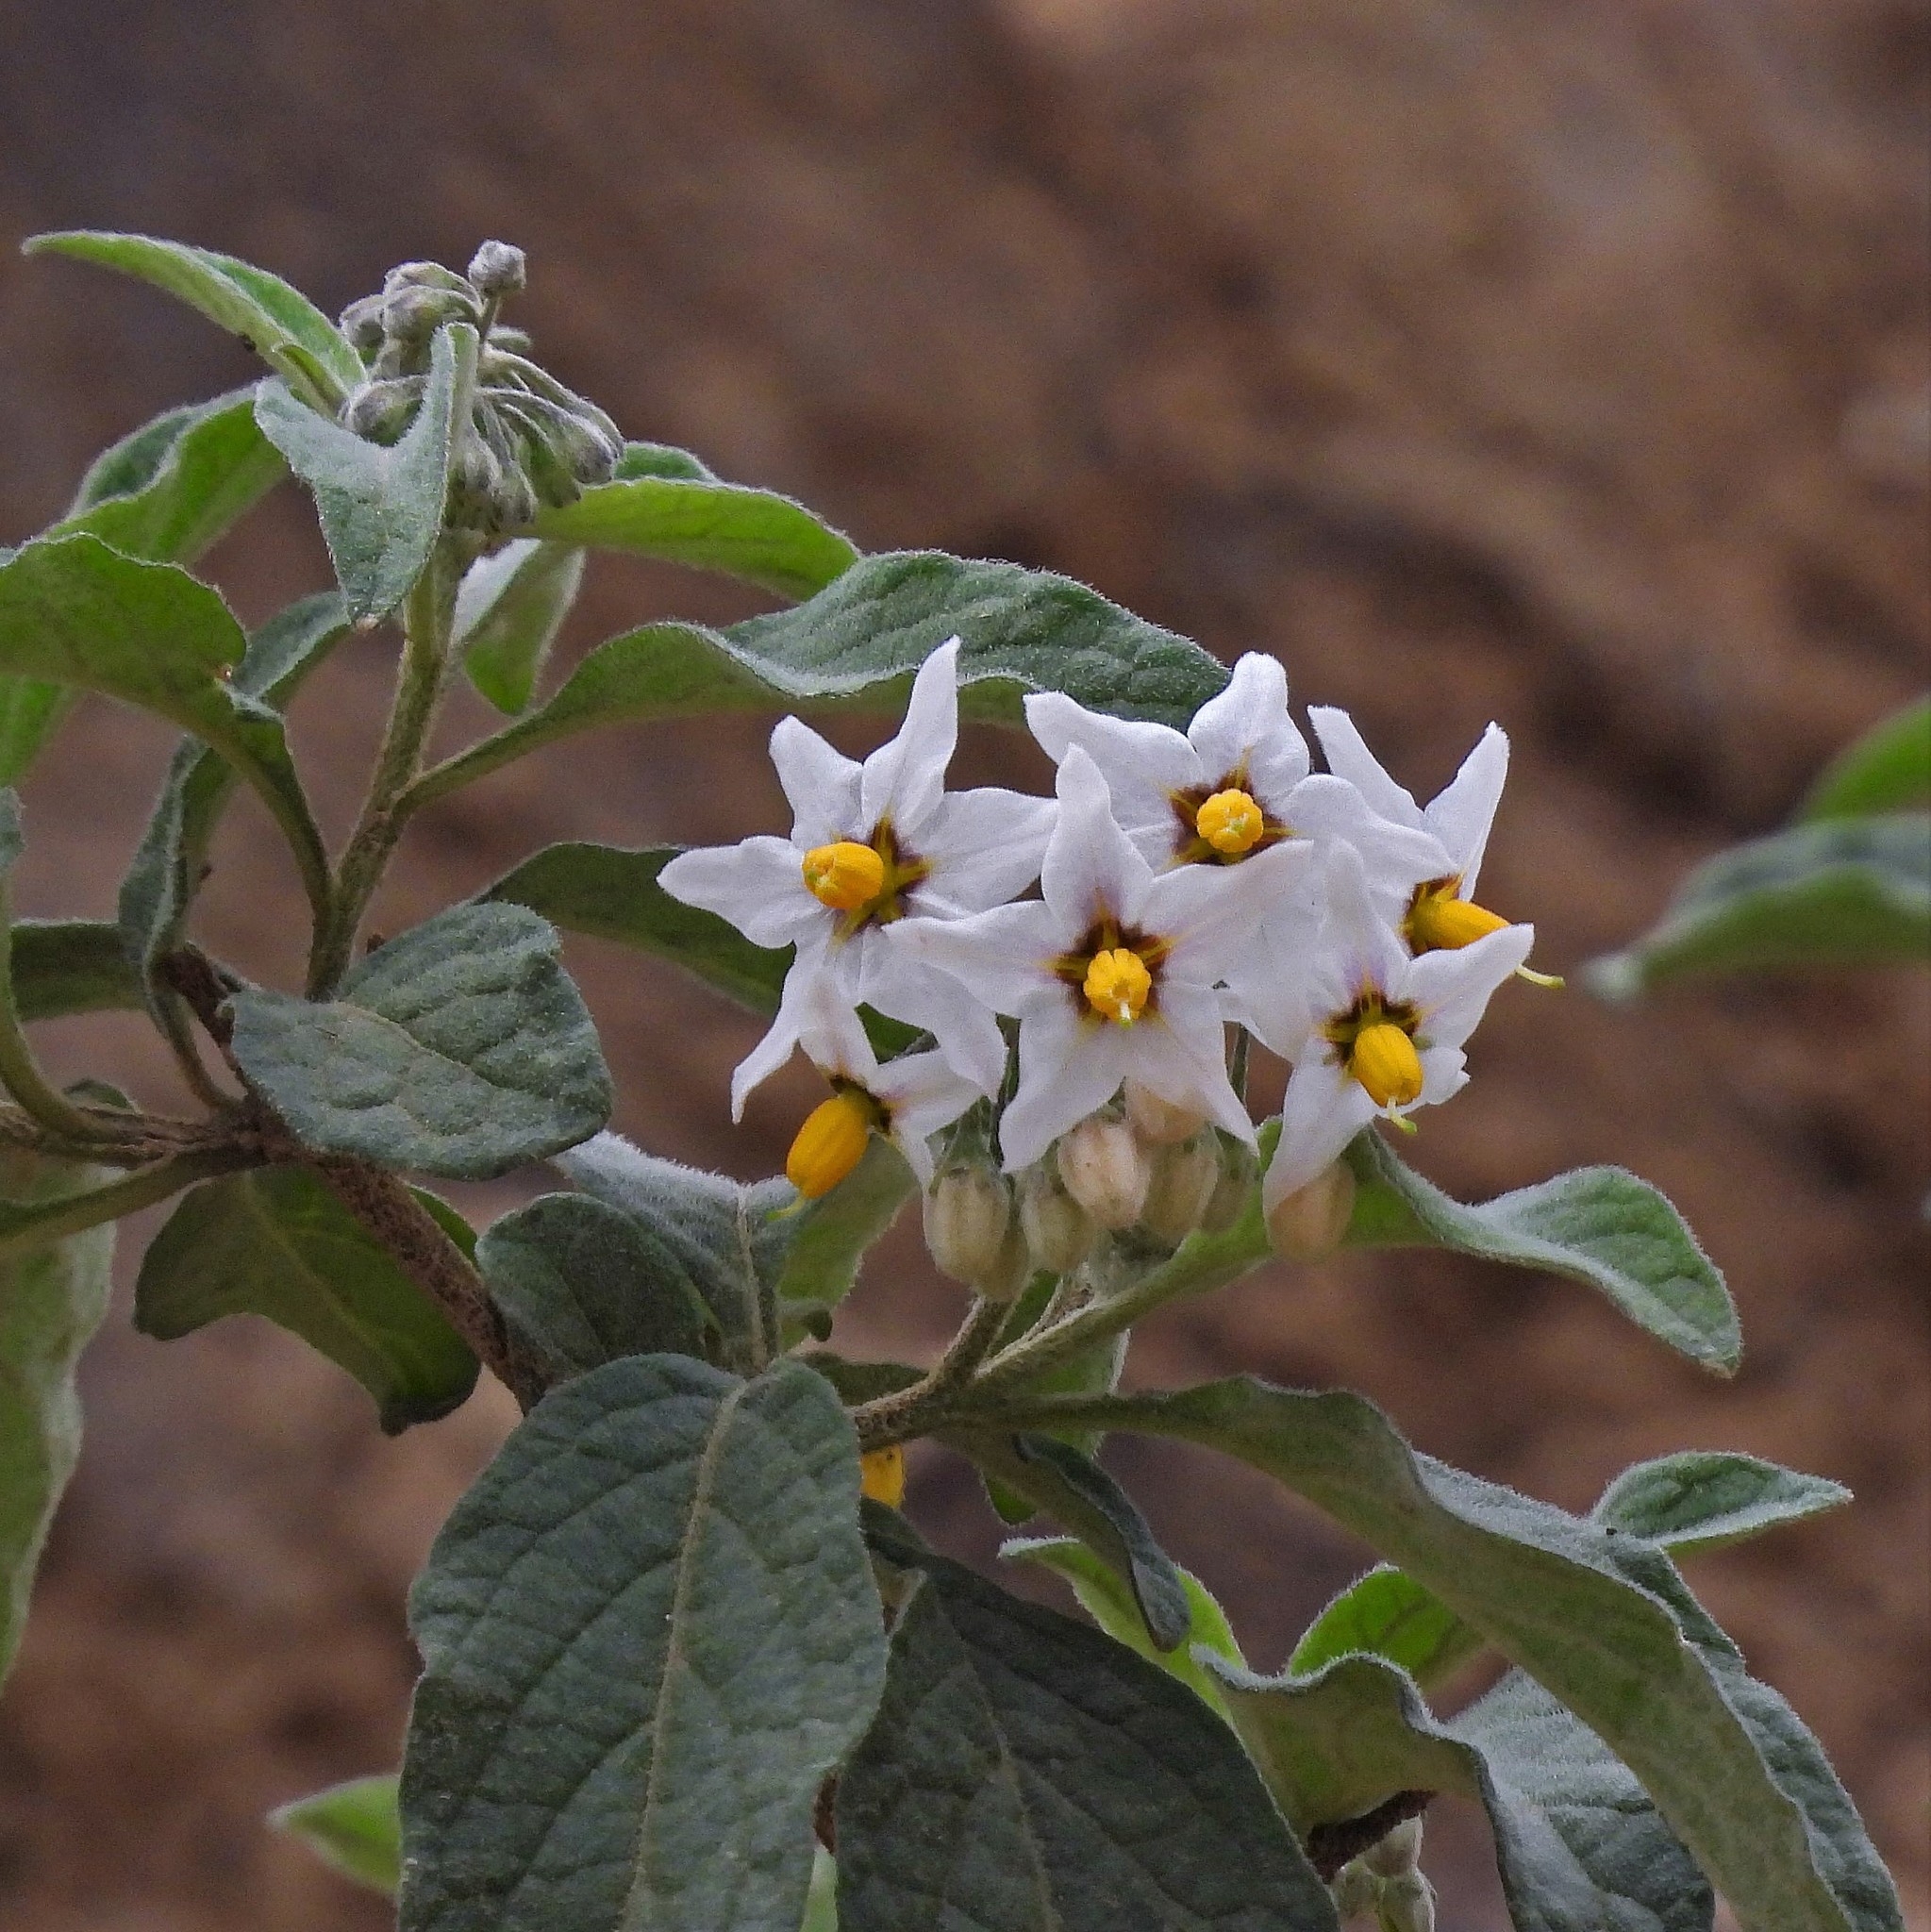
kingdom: Plantae
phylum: Tracheophyta
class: Magnoliopsida
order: Solanales
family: Solanaceae
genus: Solanum
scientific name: Solanum aloysiifolium
